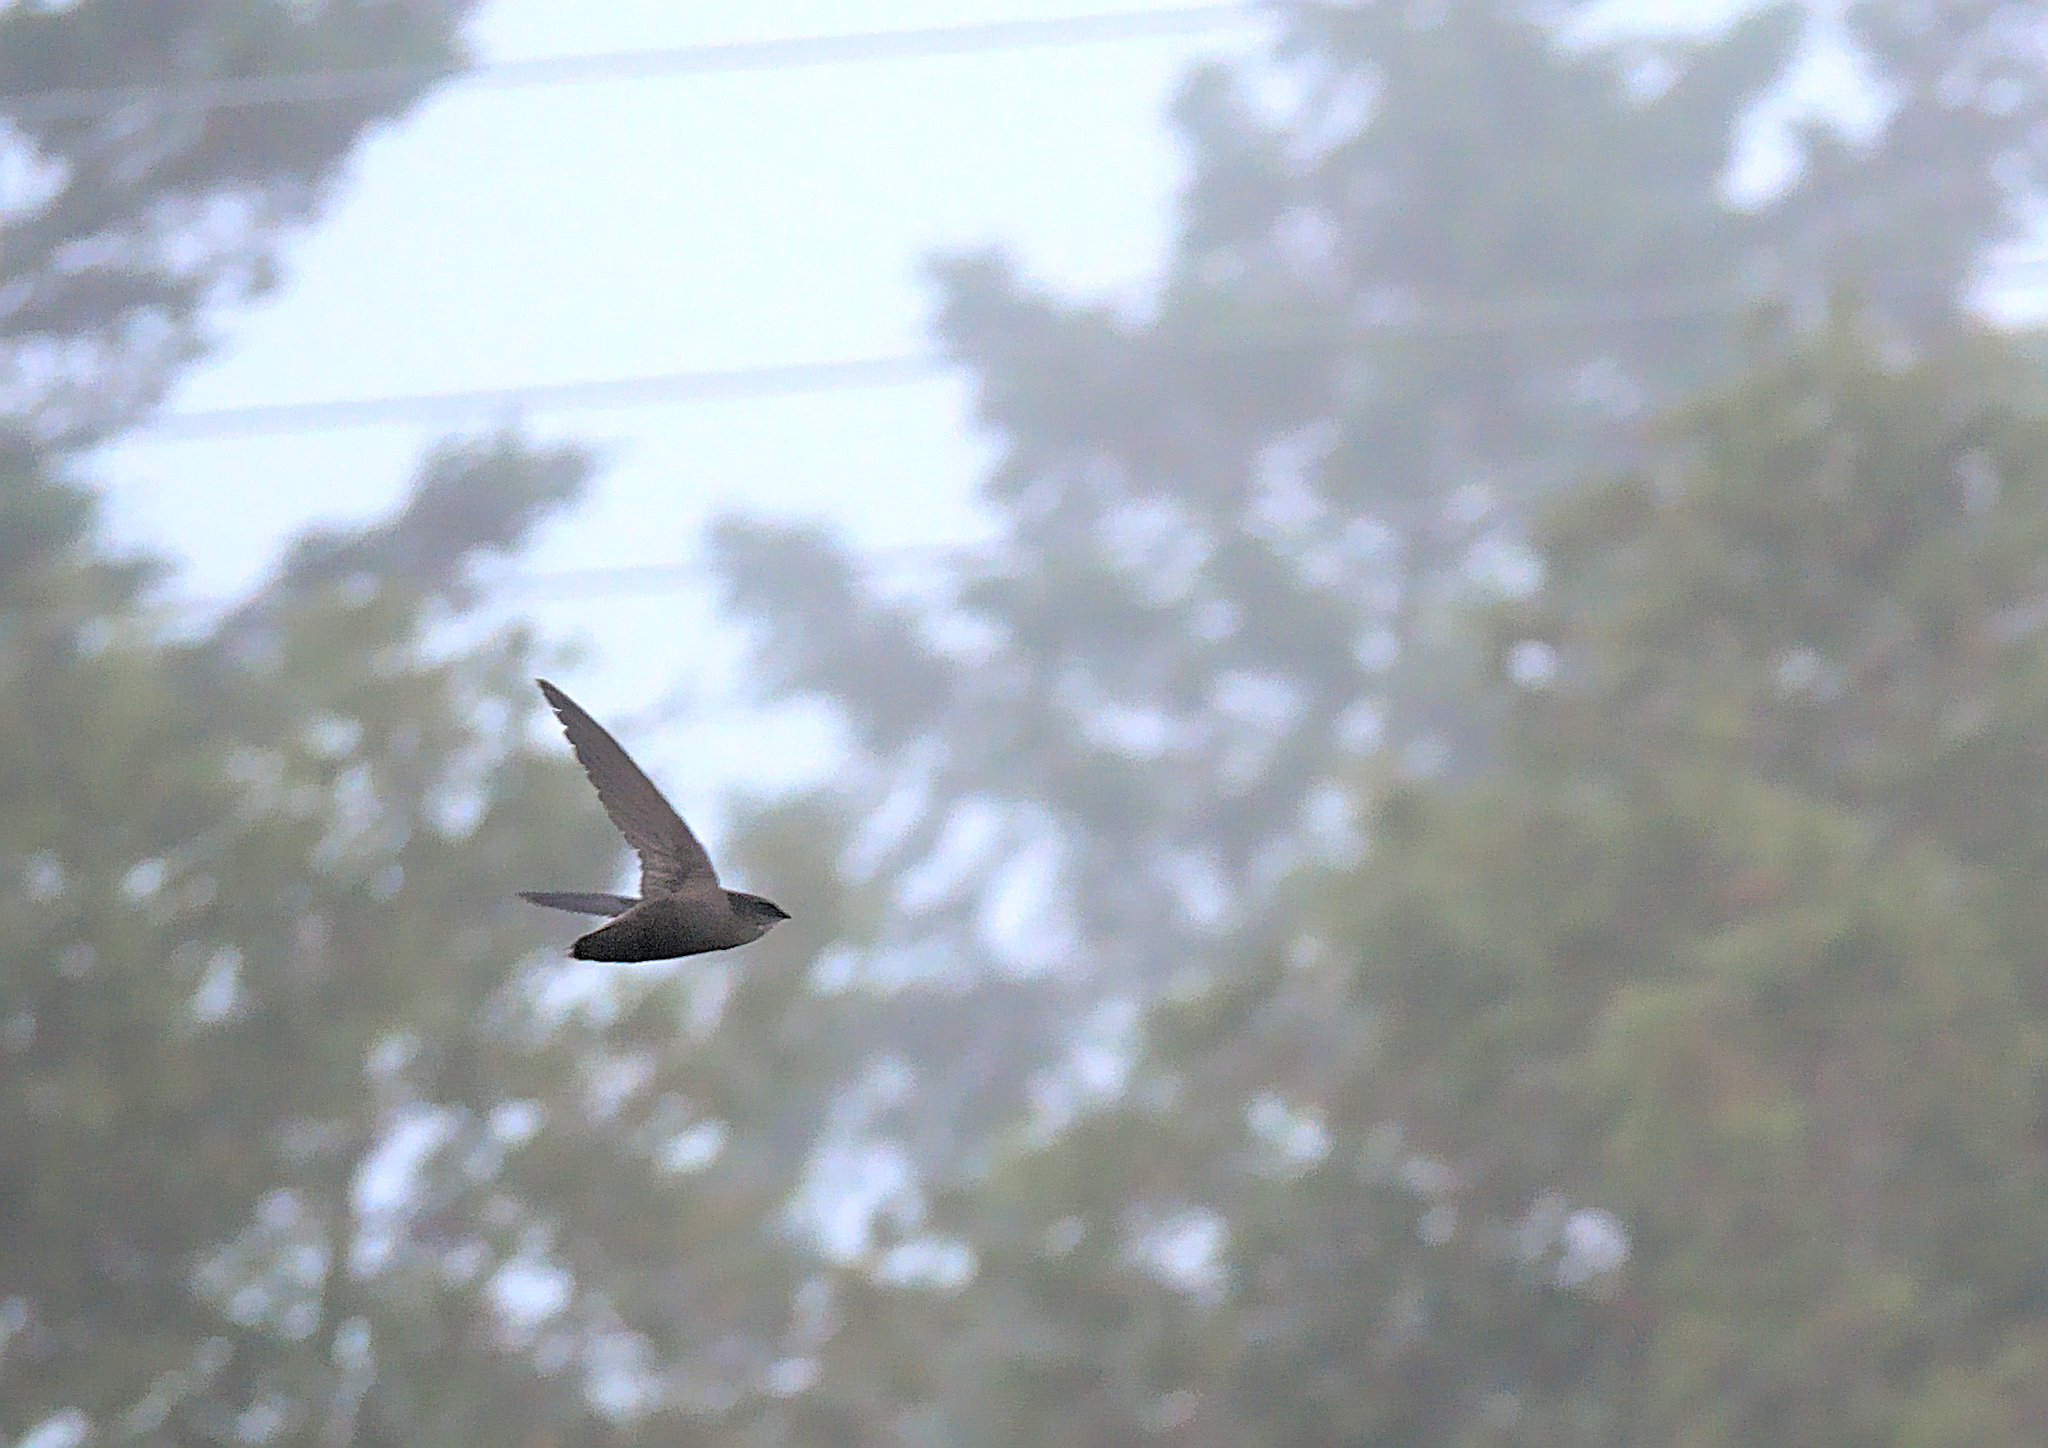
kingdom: Animalia
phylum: Chordata
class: Aves
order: Apodiformes
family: Apodidae
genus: Chaetura
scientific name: Chaetura pelagica
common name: Chimney swift
